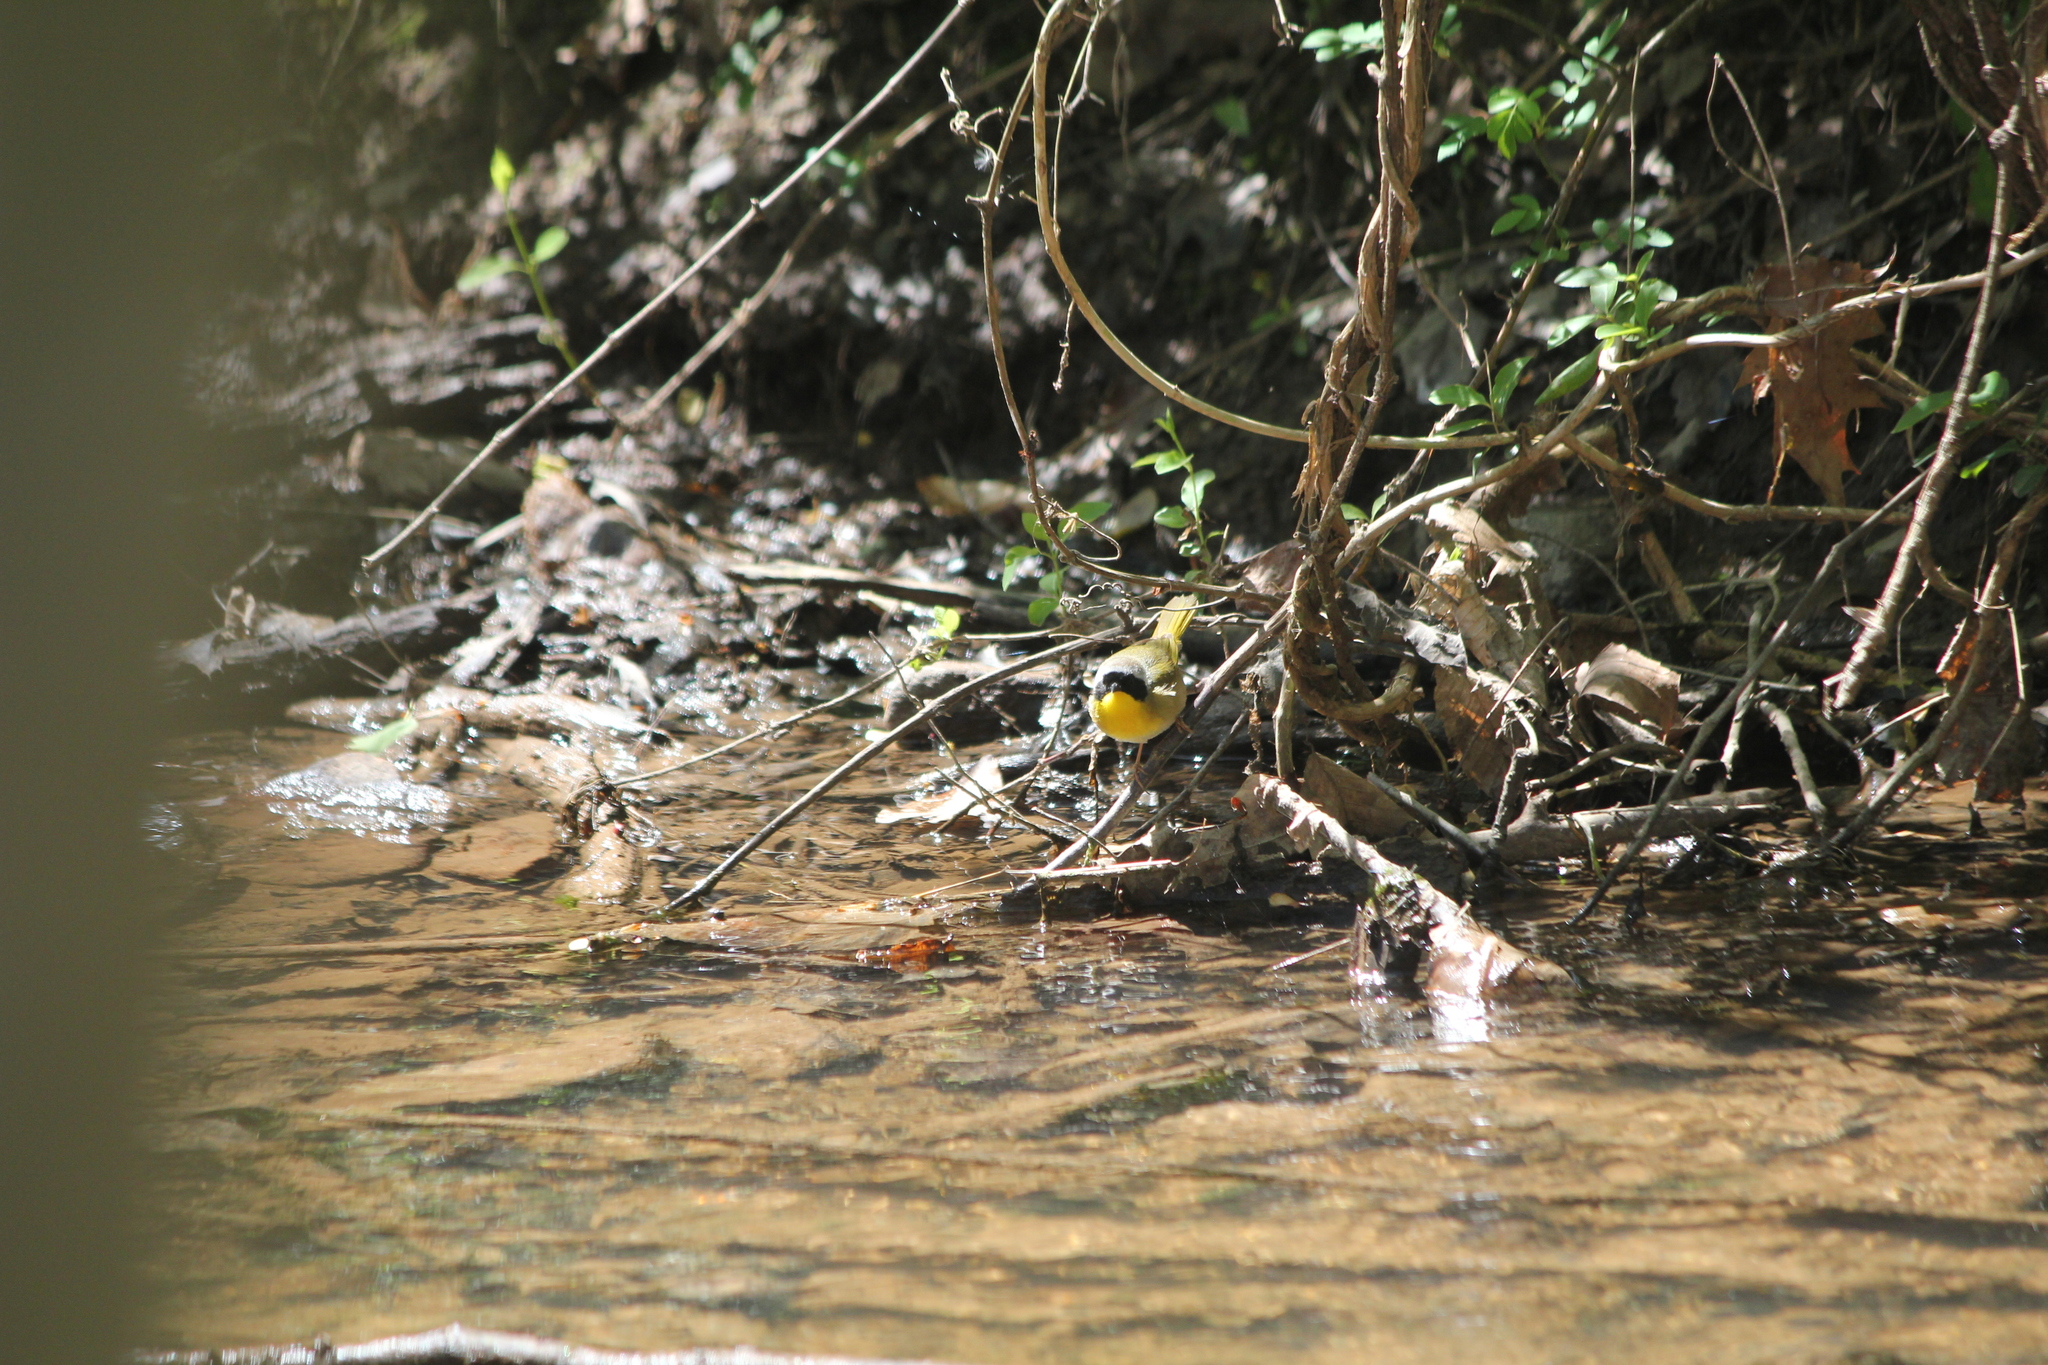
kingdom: Animalia
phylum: Chordata
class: Aves
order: Passeriformes
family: Parulidae
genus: Geothlypis
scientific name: Geothlypis trichas
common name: Common yellowthroat
